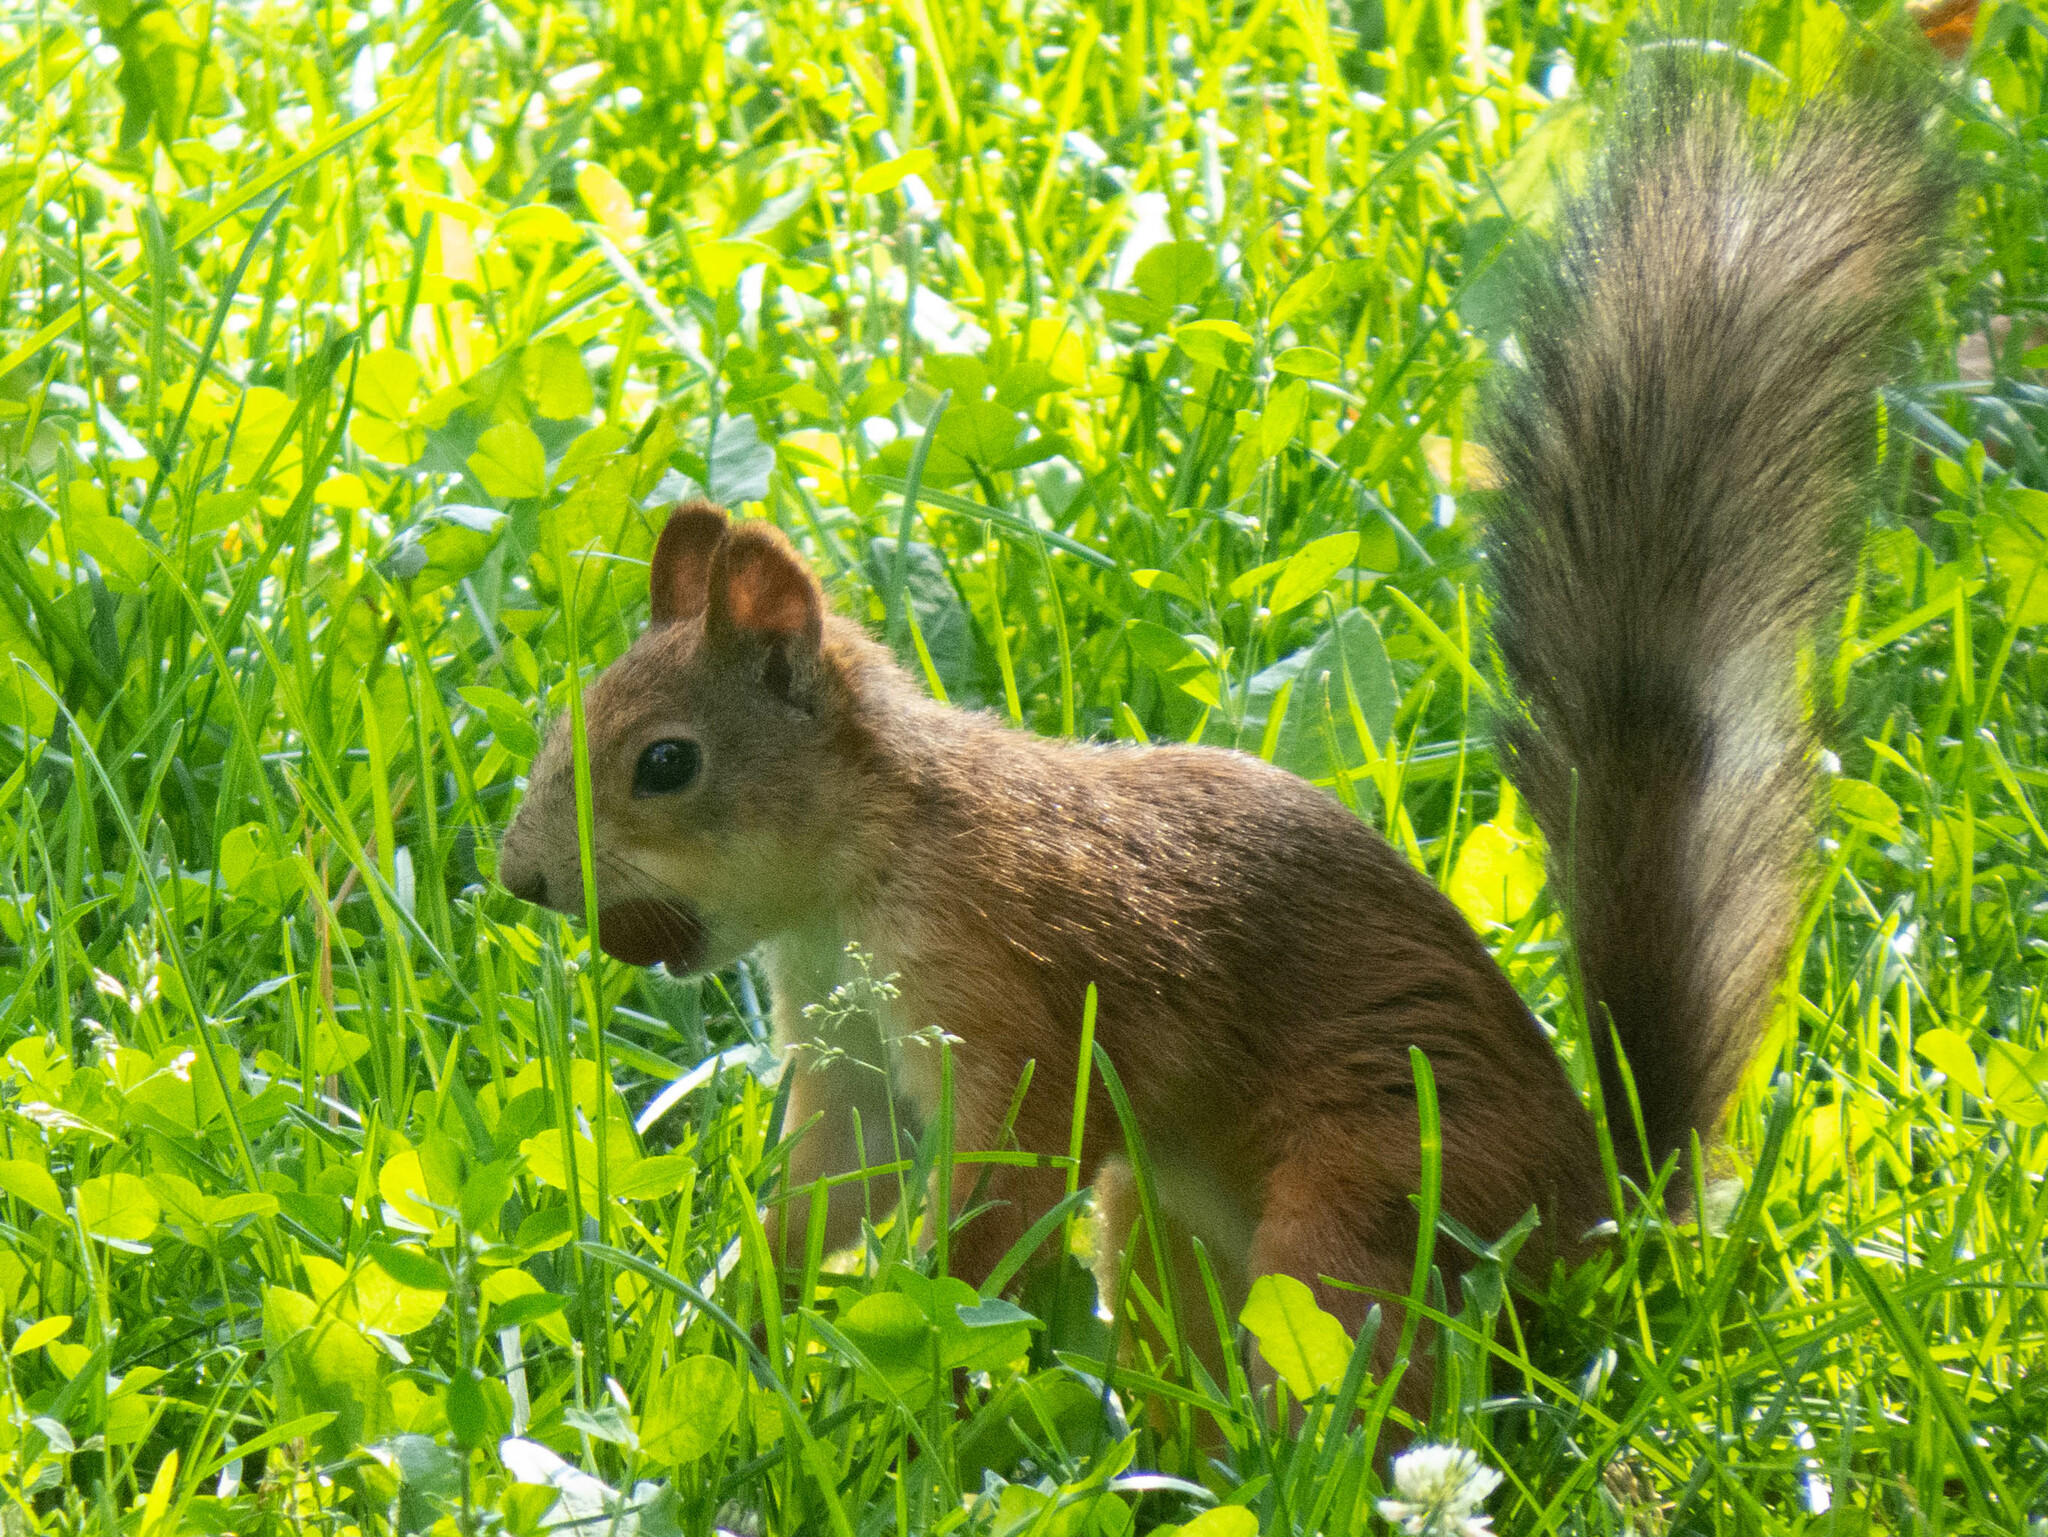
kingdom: Animalia
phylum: Chordata
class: Mammalia
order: Rodentia
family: Sciuridae
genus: Sciurus
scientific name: Sciurus vulgaris
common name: Eurasian red squirrel
